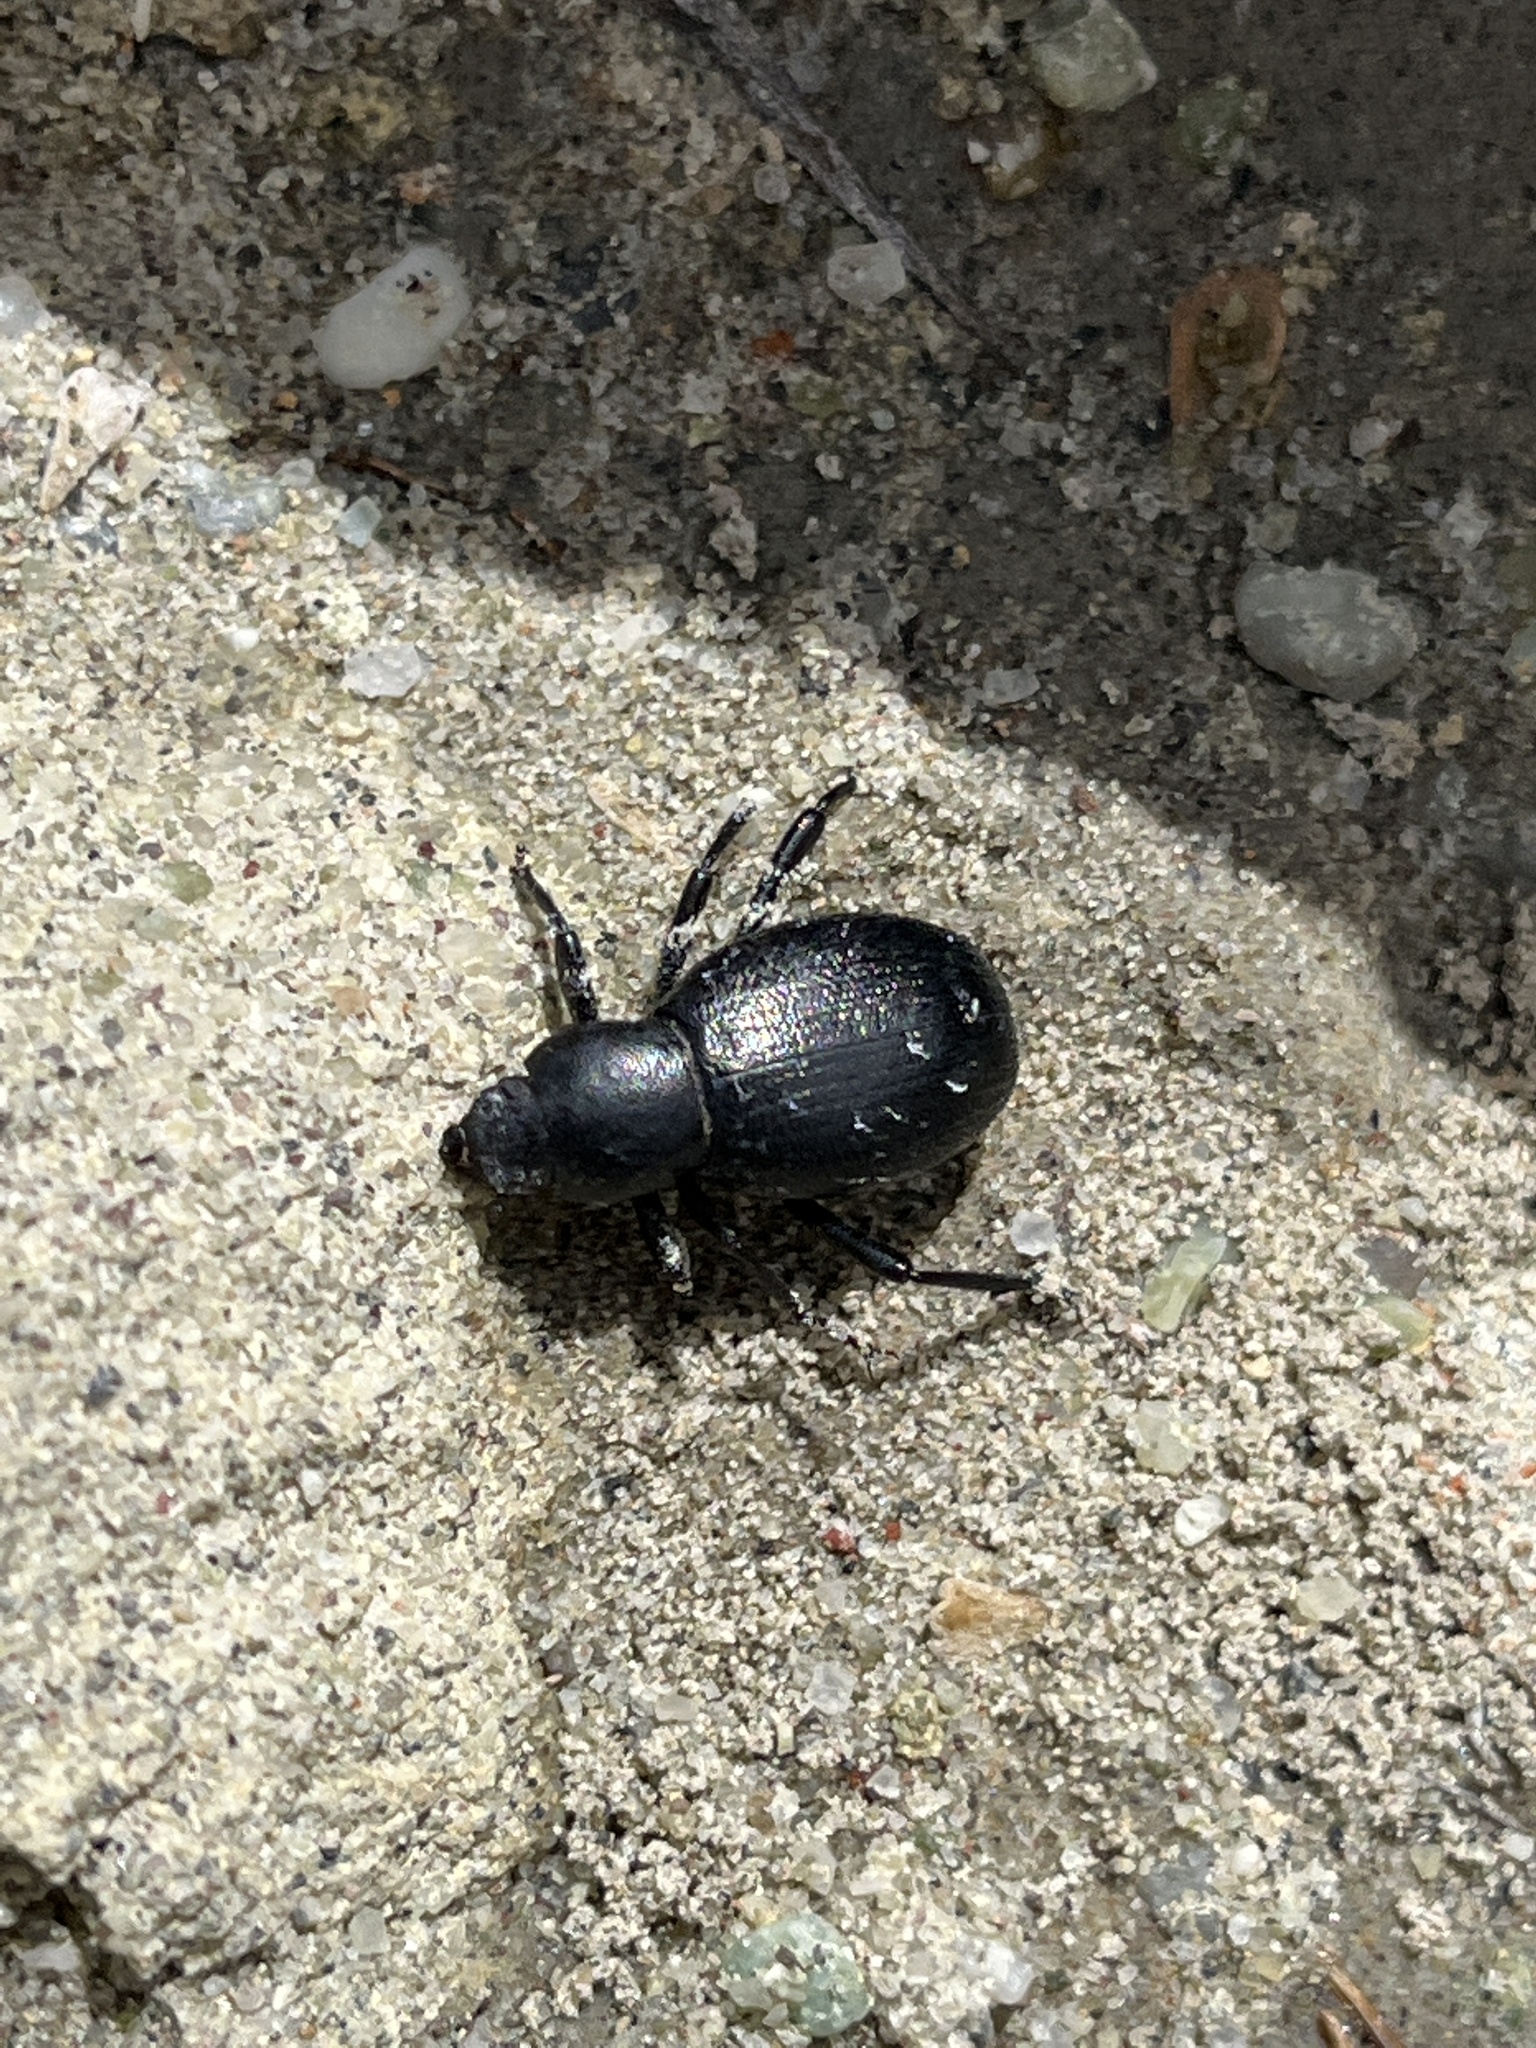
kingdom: Animalia
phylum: Arthropoda
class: Insecta
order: Coleoptera
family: Tenebrionidae
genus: Eleodes
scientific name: Eleodes extricata
